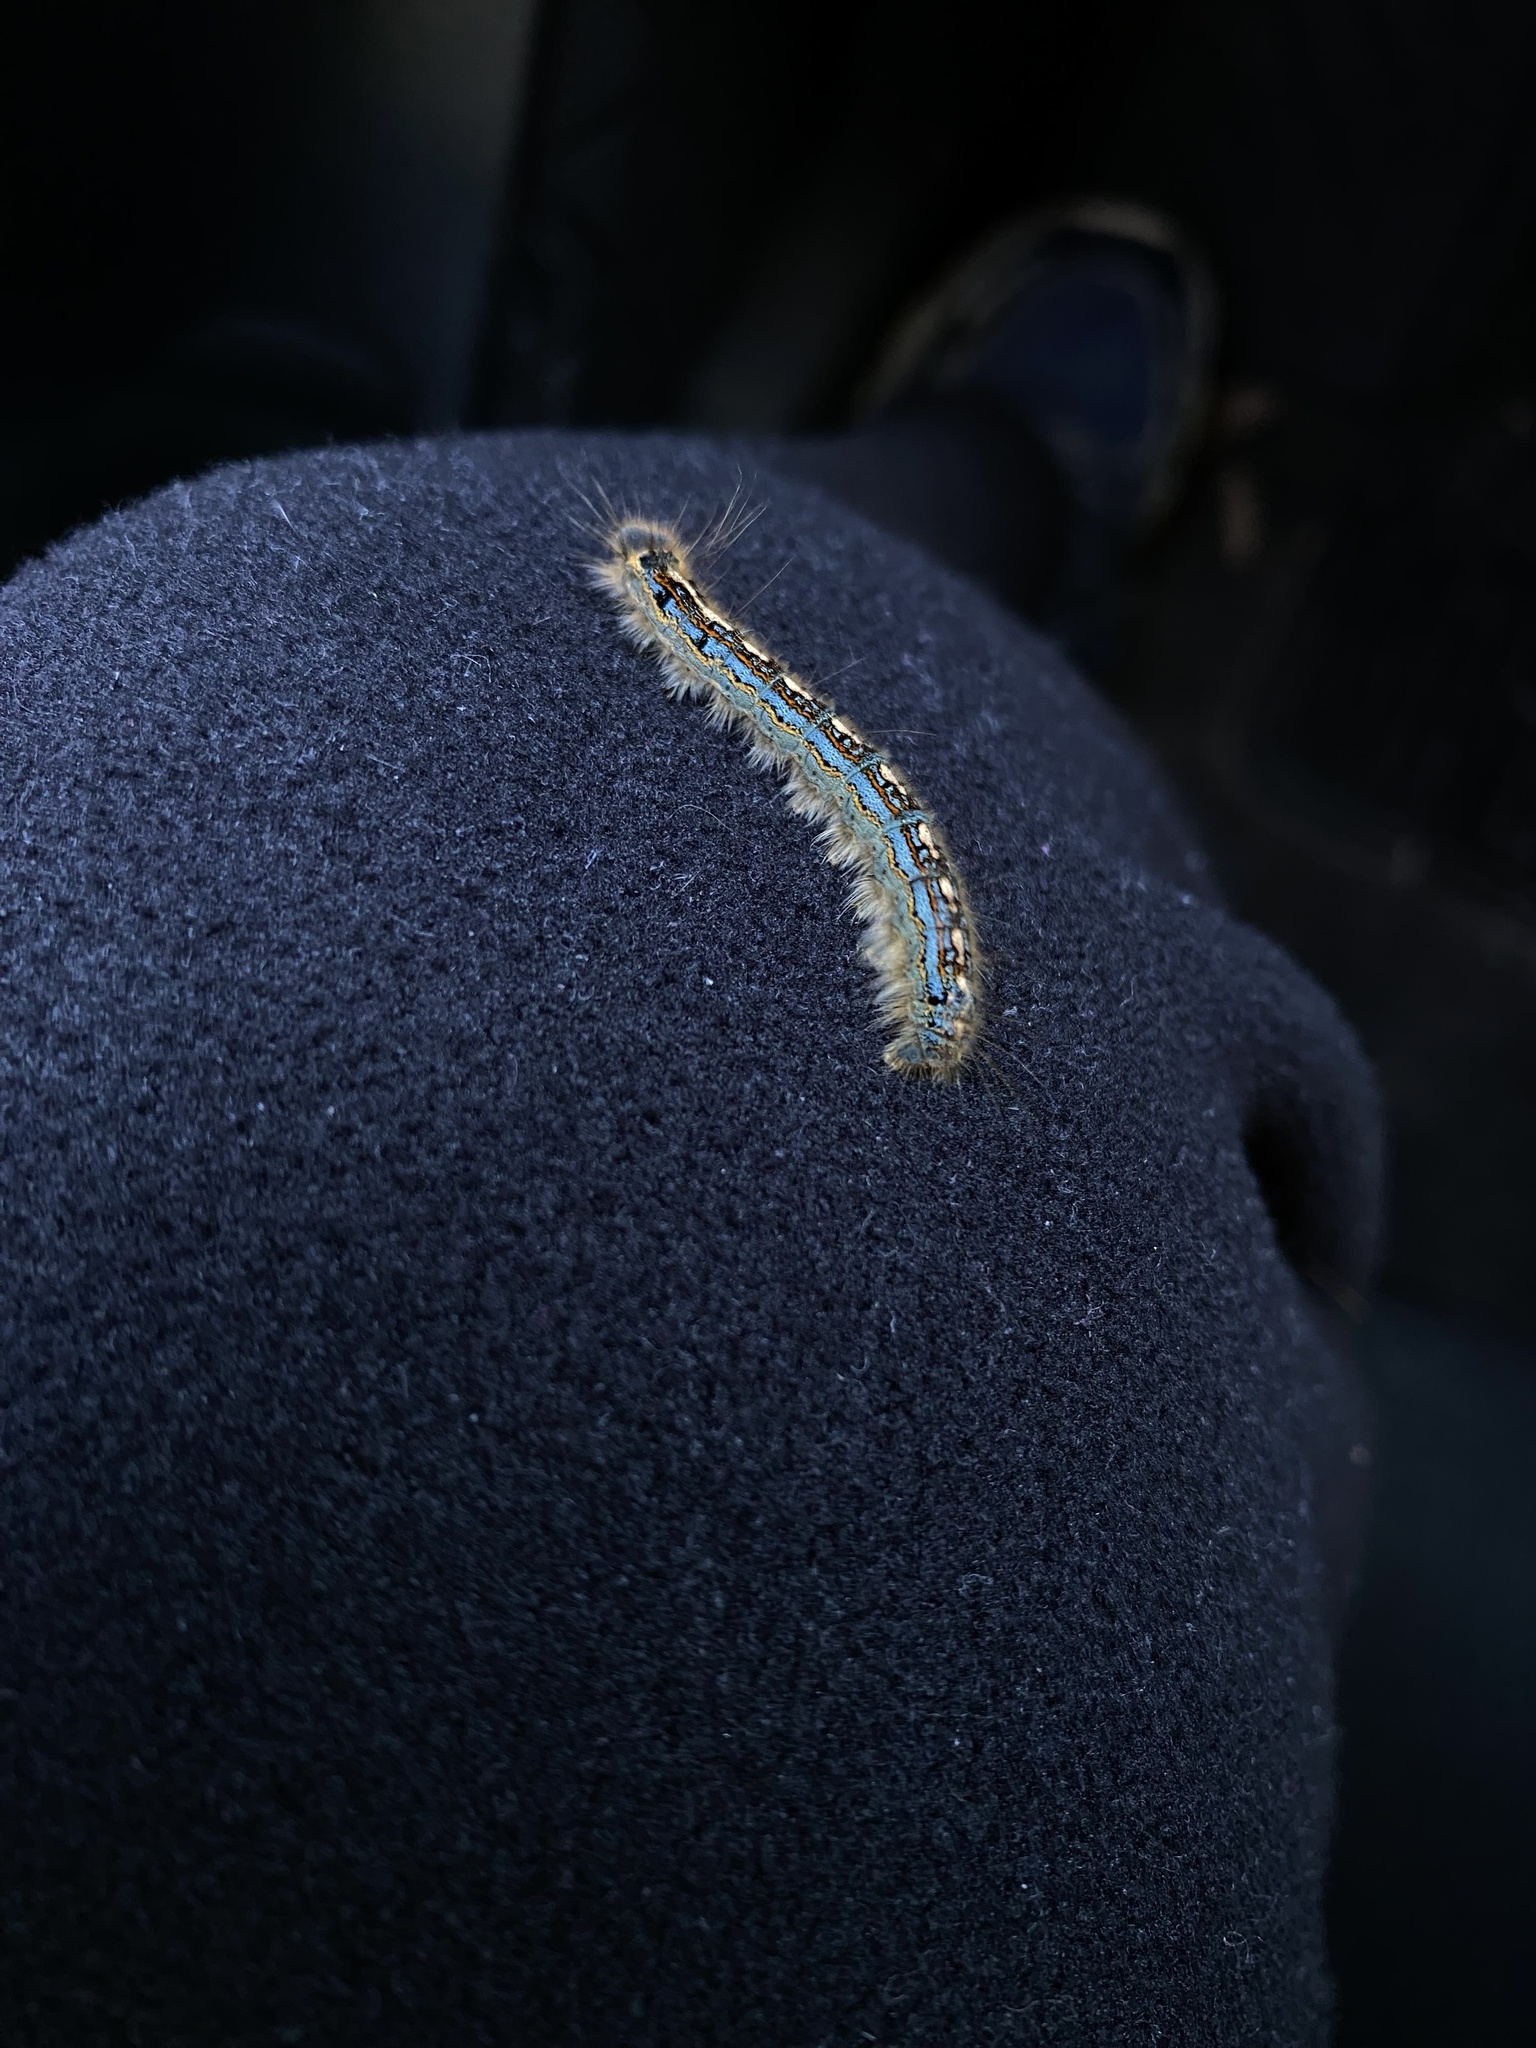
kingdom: Animalia
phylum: Arthropoda
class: Insecta
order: Lepidoptera
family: Lasiocampidae
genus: Malacosoma
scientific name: Malacosoma disstria
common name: Forest tent caterpillar
